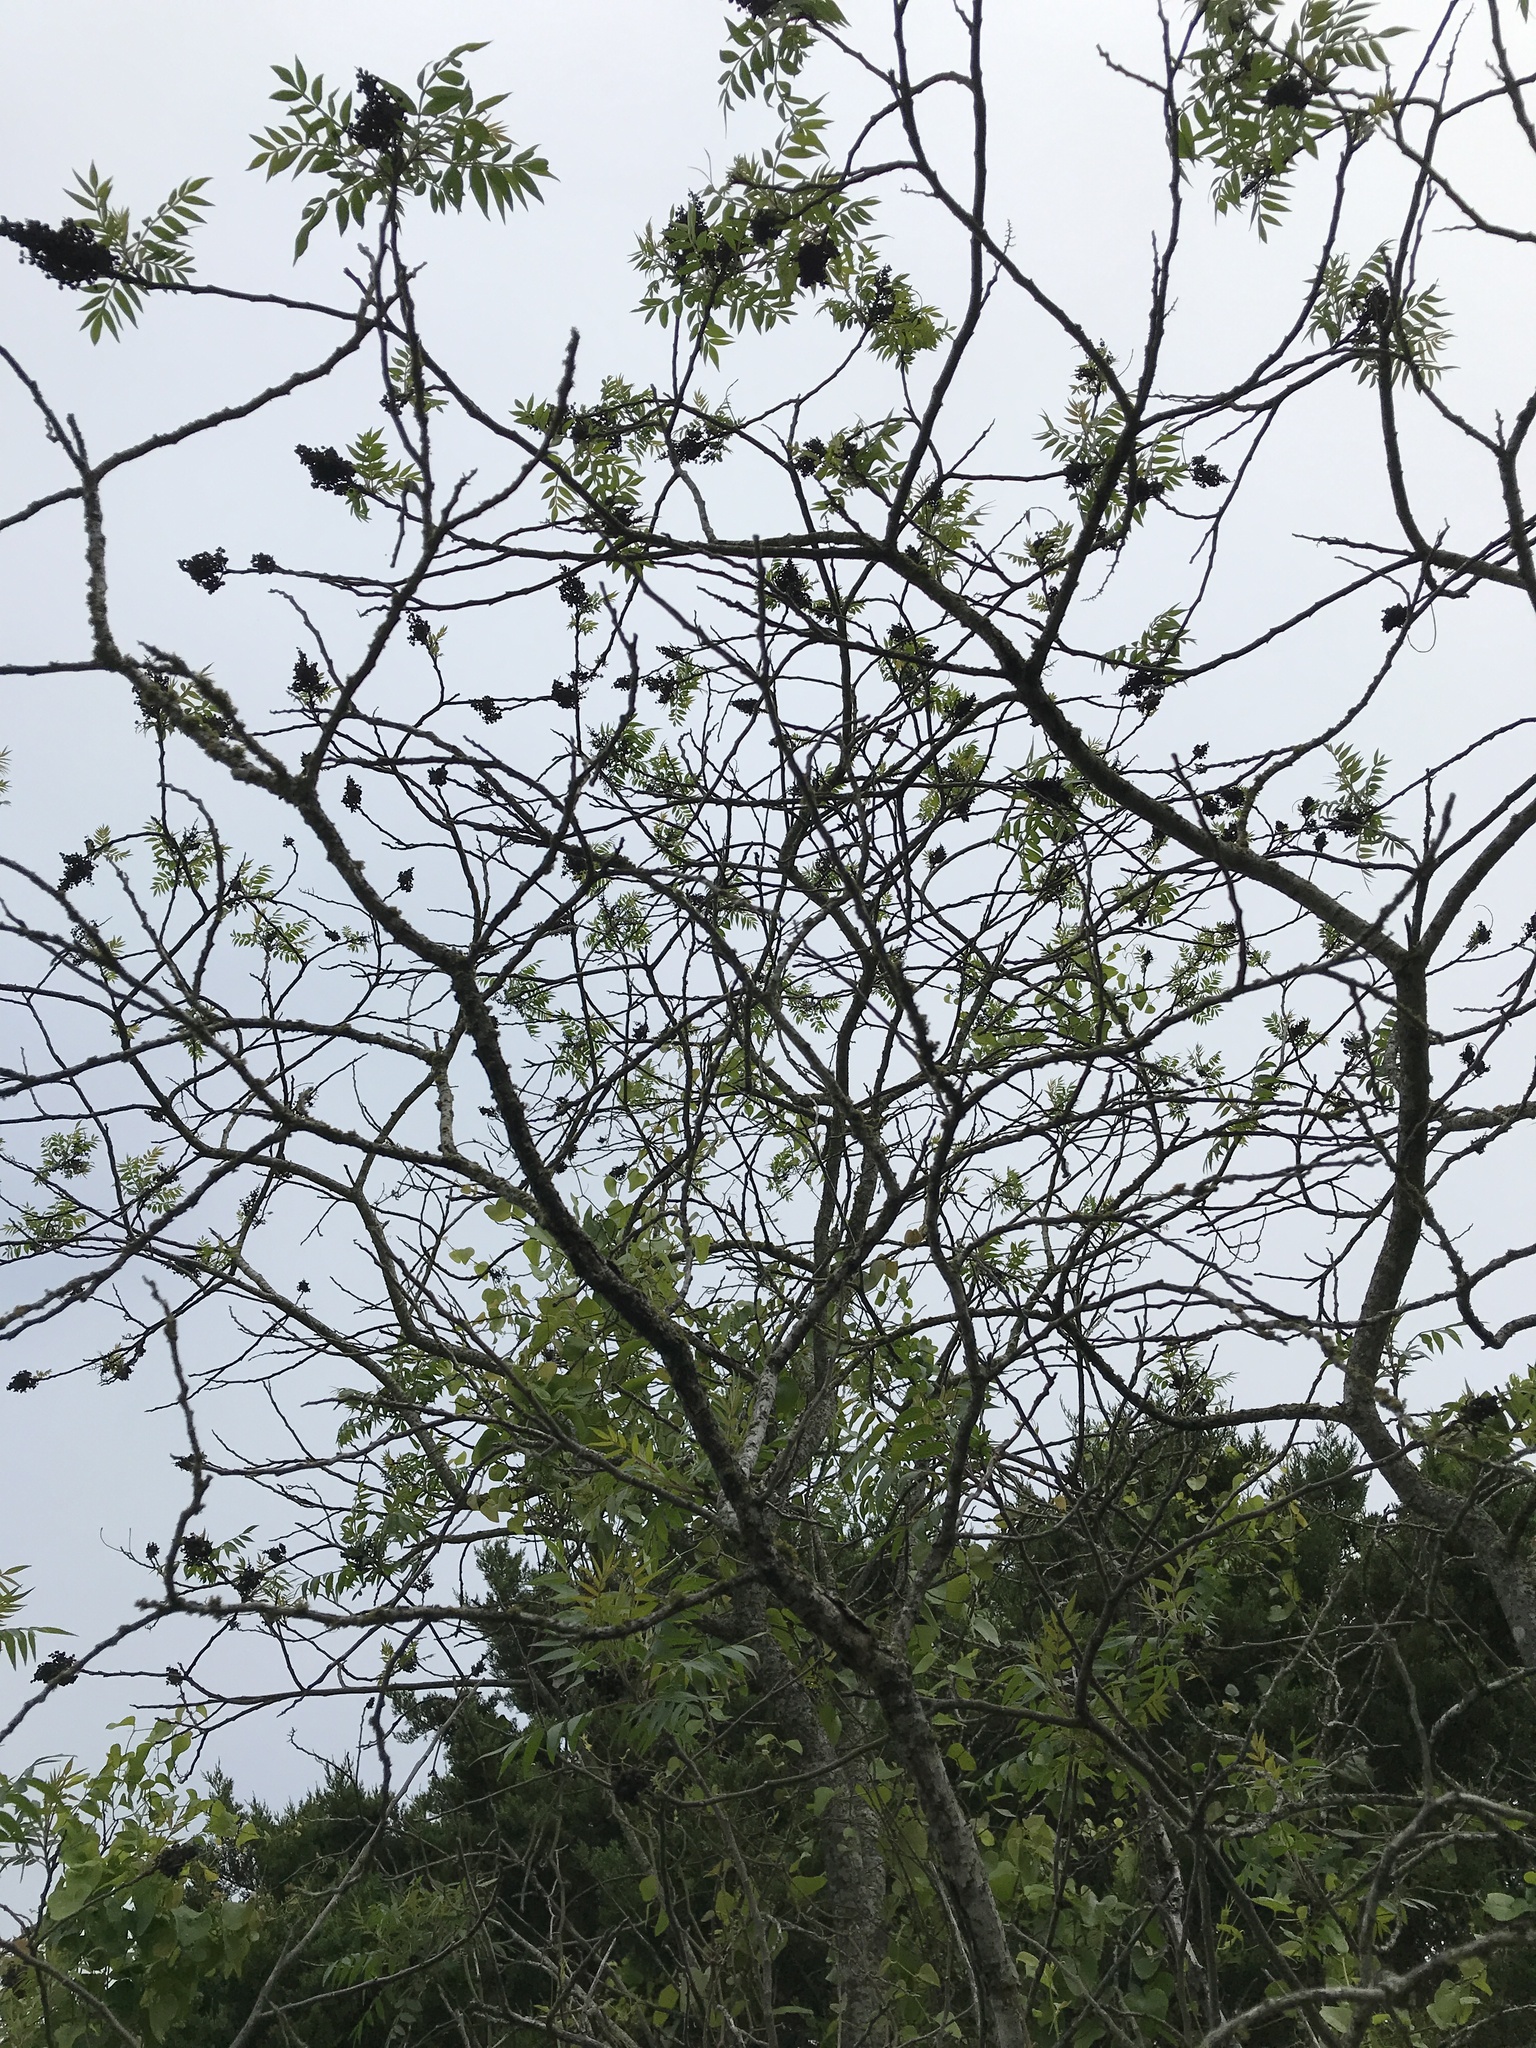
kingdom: Plantae
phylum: Tracheophyta
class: Magnoliopsida
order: Sapindales
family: Anacardiaceae
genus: Rhus
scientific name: Rhus lanceolata
